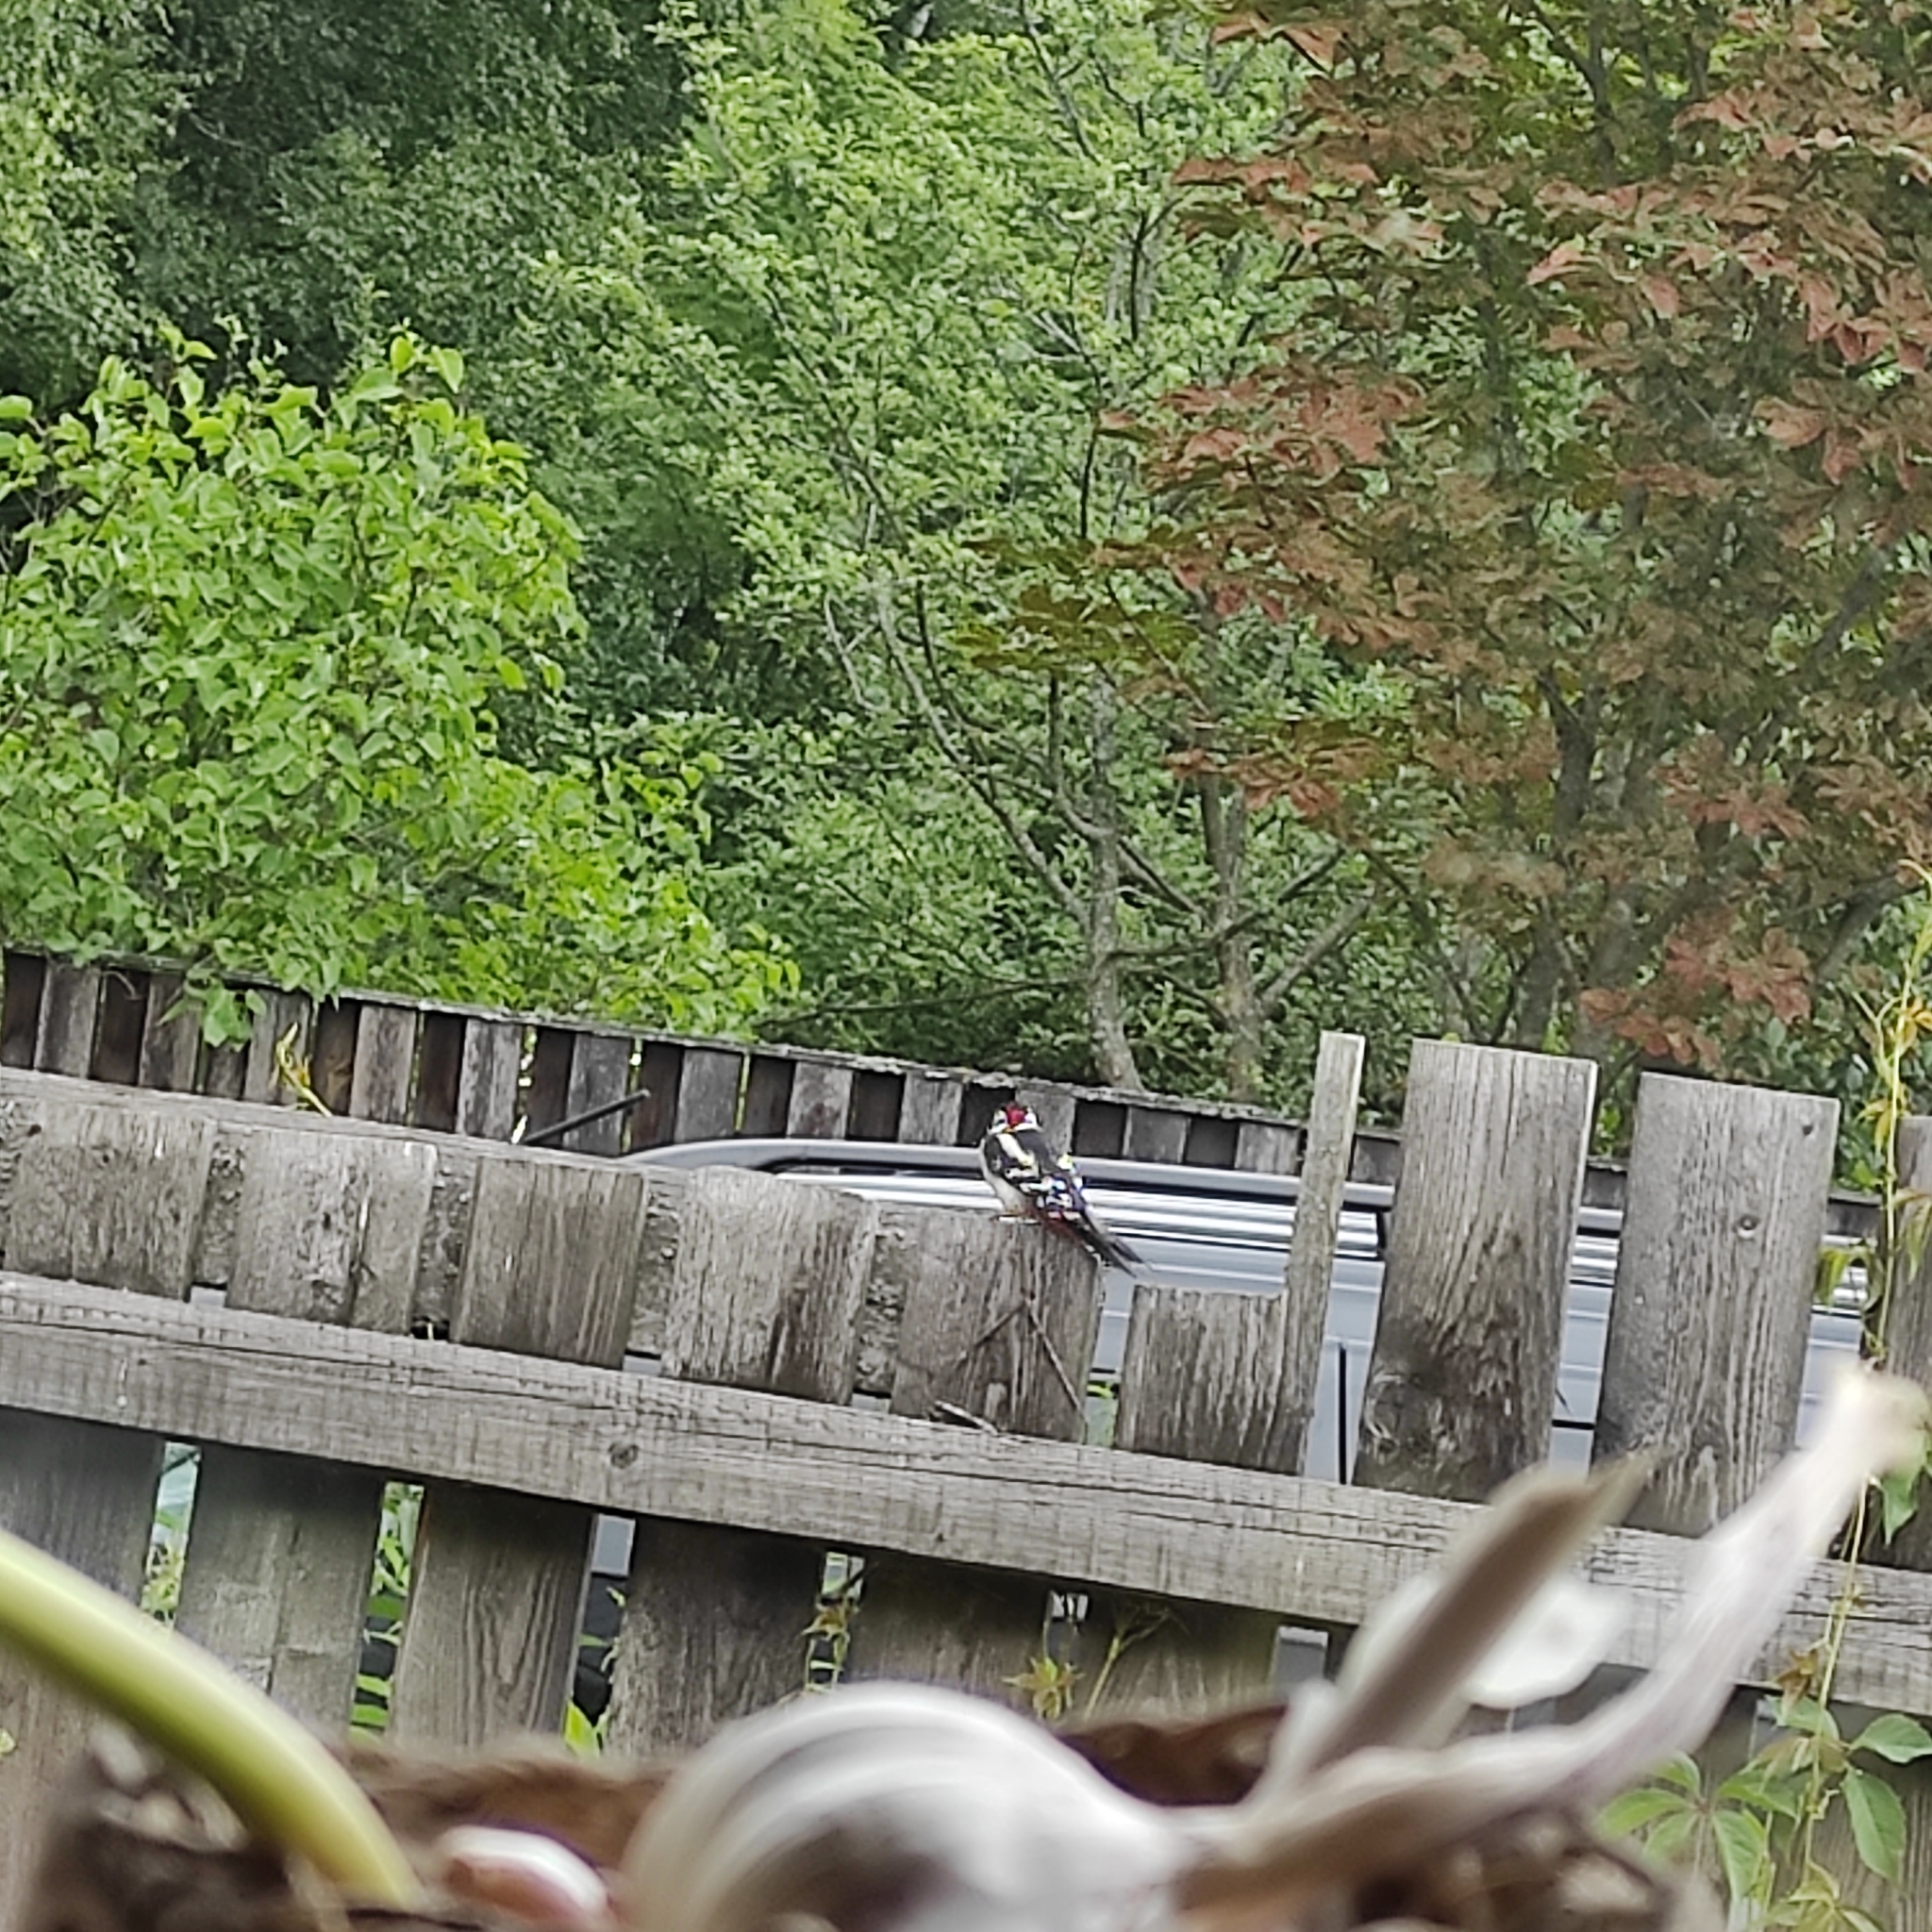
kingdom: Animalia
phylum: Chordata
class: Aves
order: Piciformes
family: Picidae
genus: Dendrocopos
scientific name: Dendrocopos major
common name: Great spotted woodpecker
